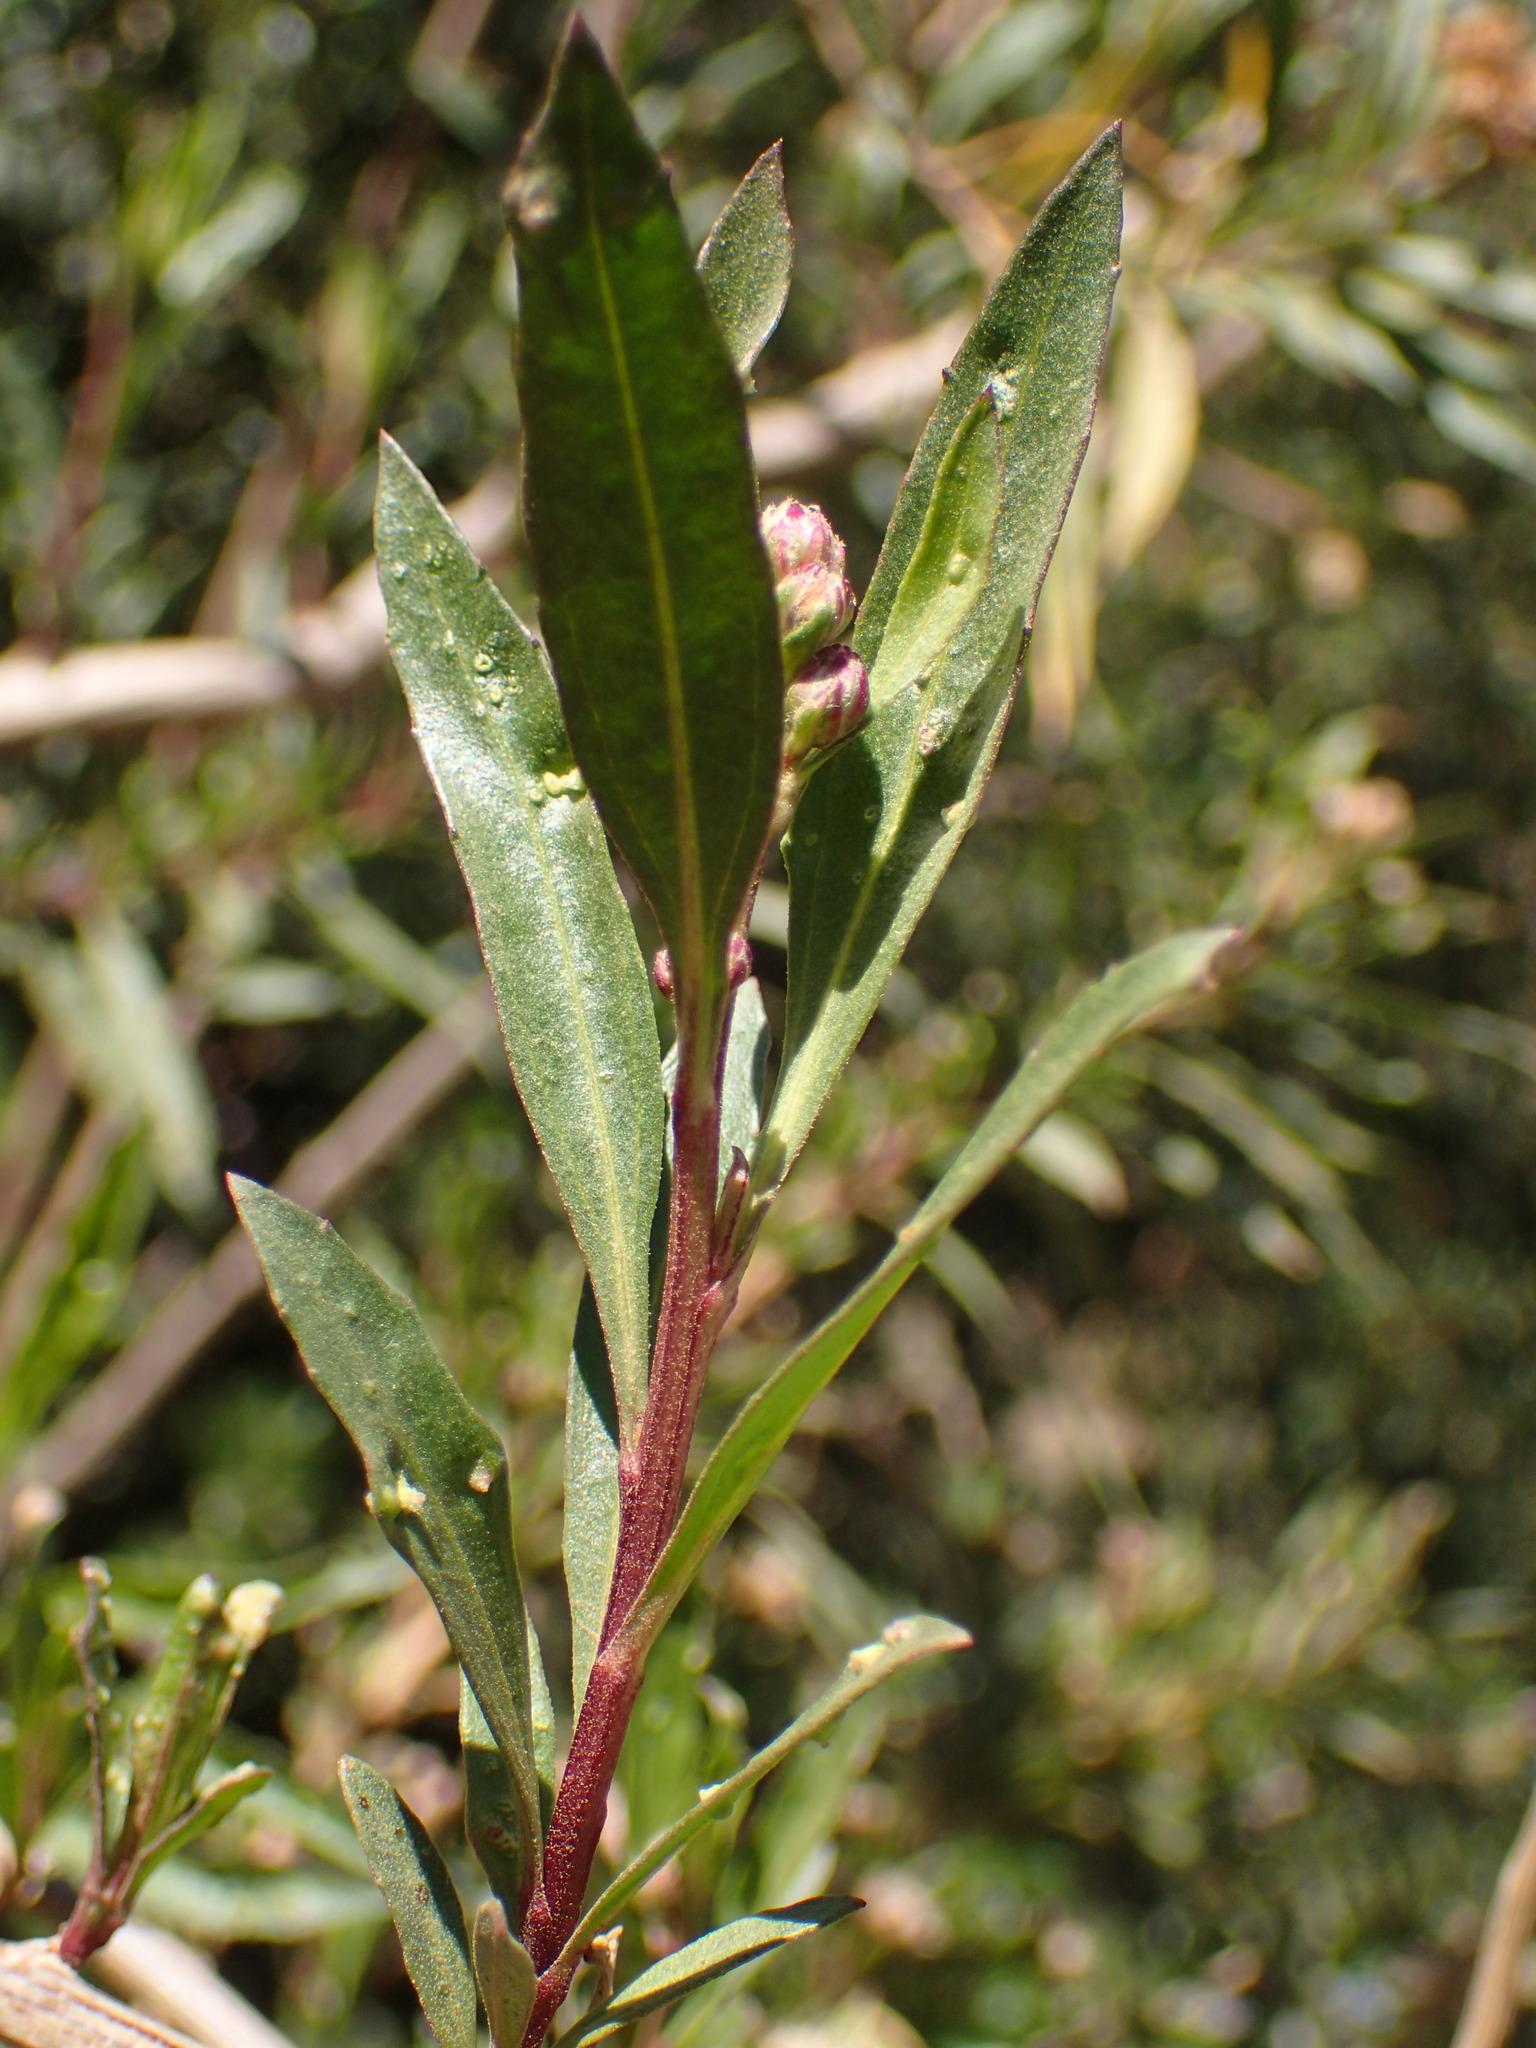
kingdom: Plantae
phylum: Tracheophyta
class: Magnoliopsida
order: Asterales
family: Asteraceae
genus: Baccharis
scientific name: Baccharis salicifolia
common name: Sticky baccharis
